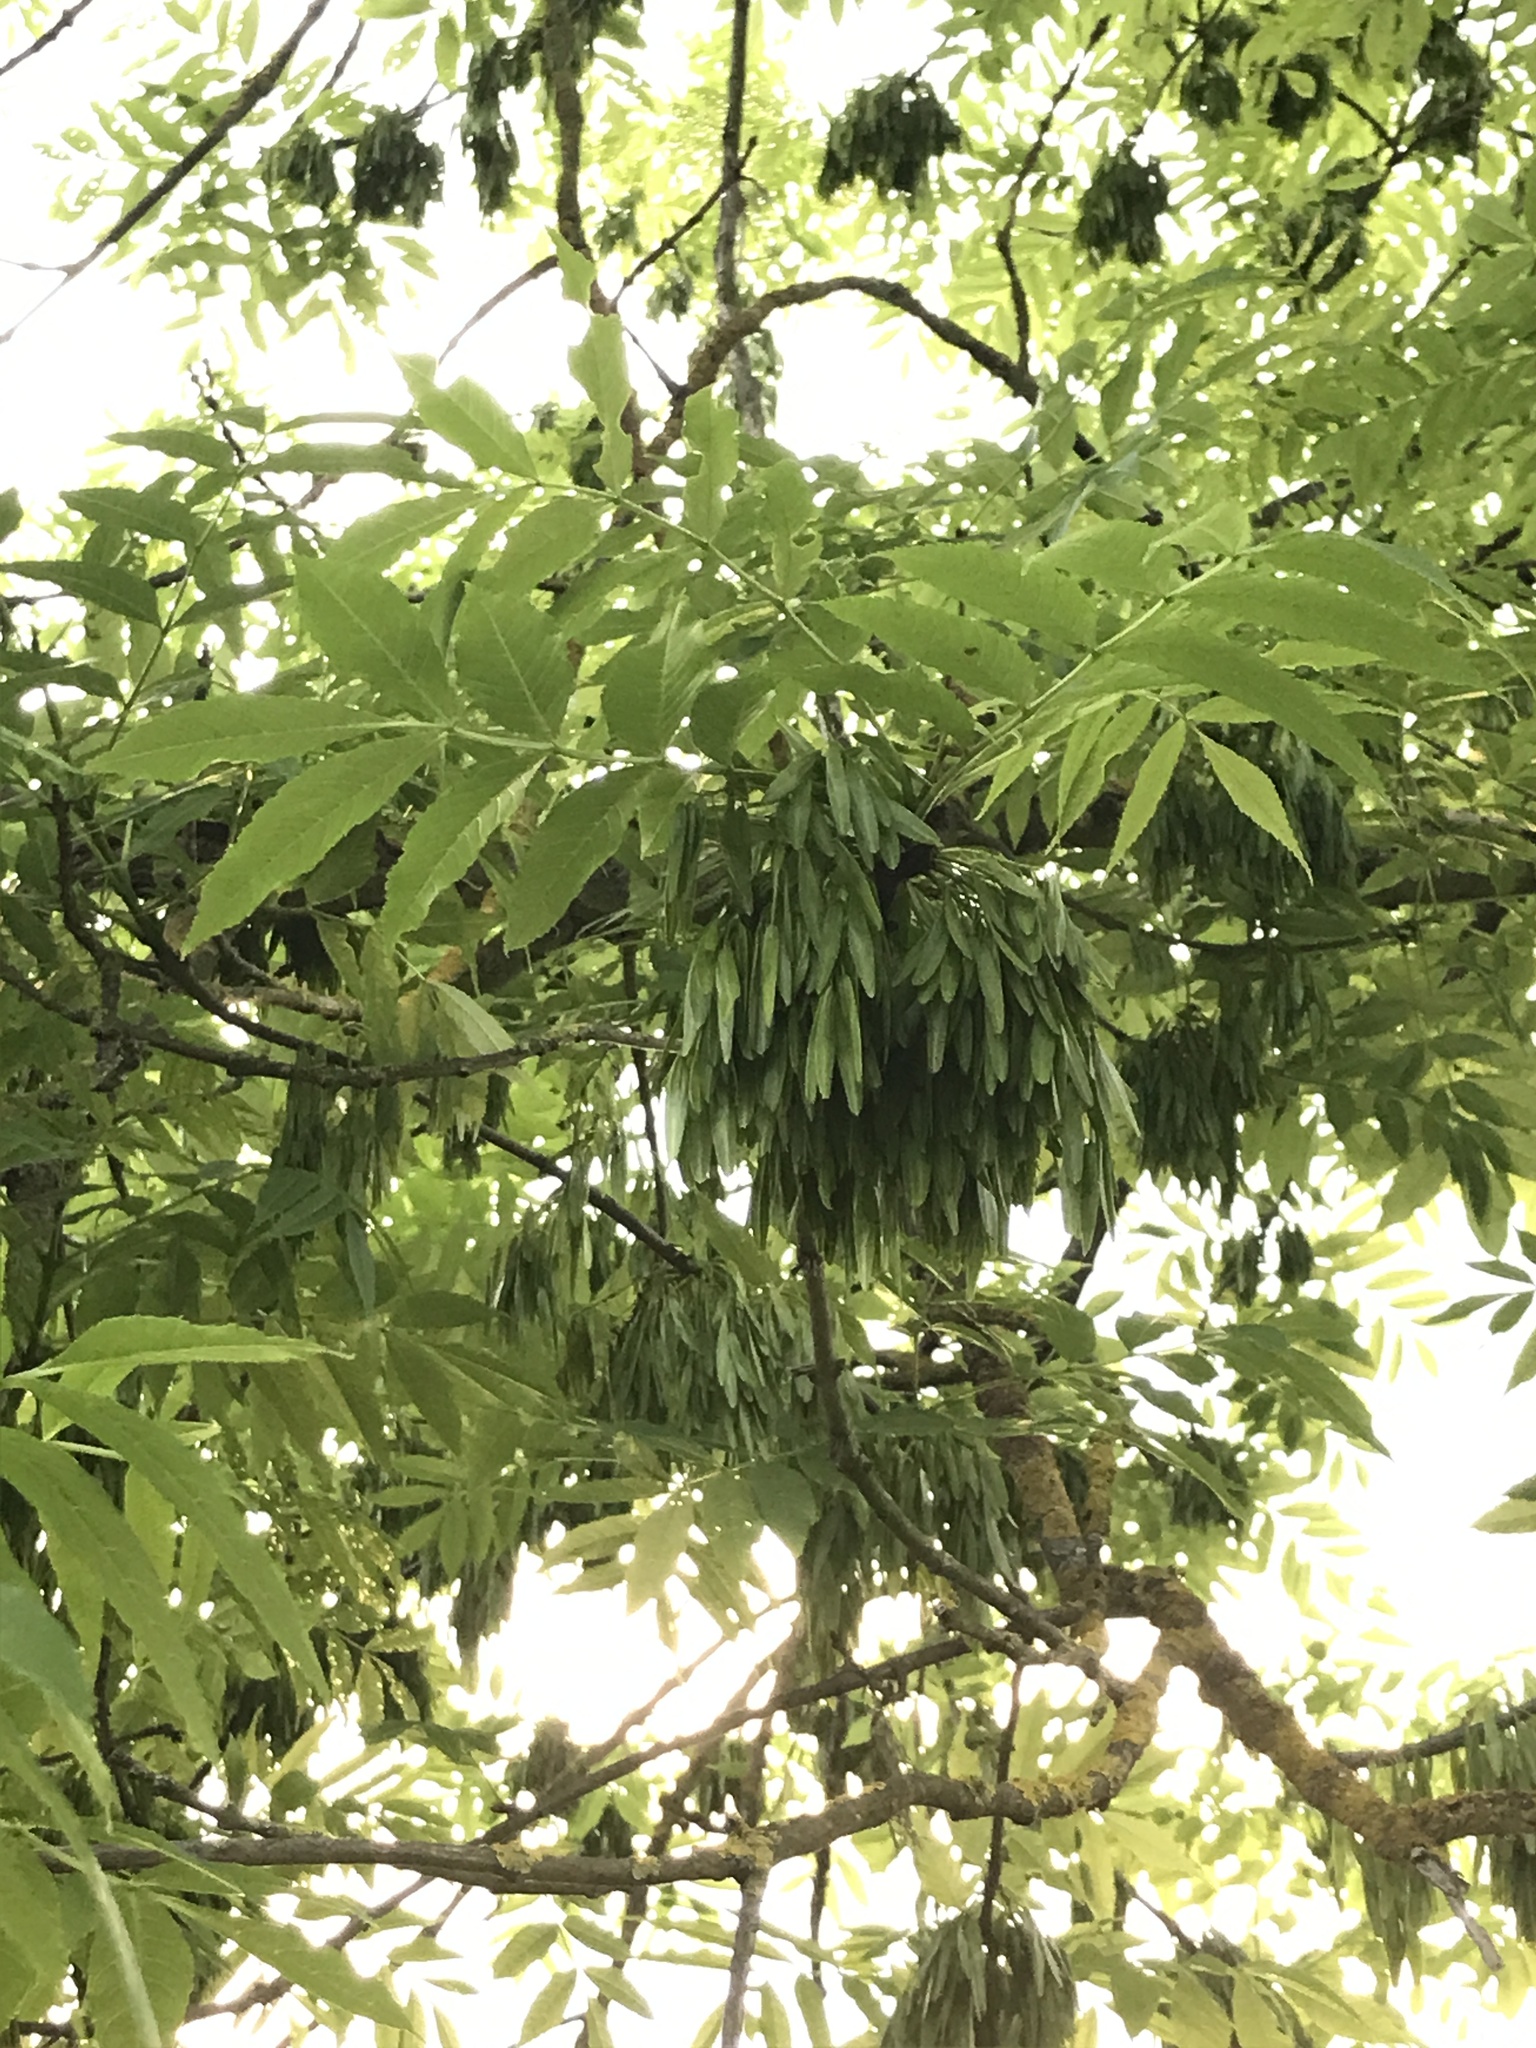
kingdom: Plantae
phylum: Tracheophyta
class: Magnoliopsida
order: Lamiales
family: Oleaceae
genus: Fraxinus
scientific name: Fraxinus excelsior
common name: European ash
